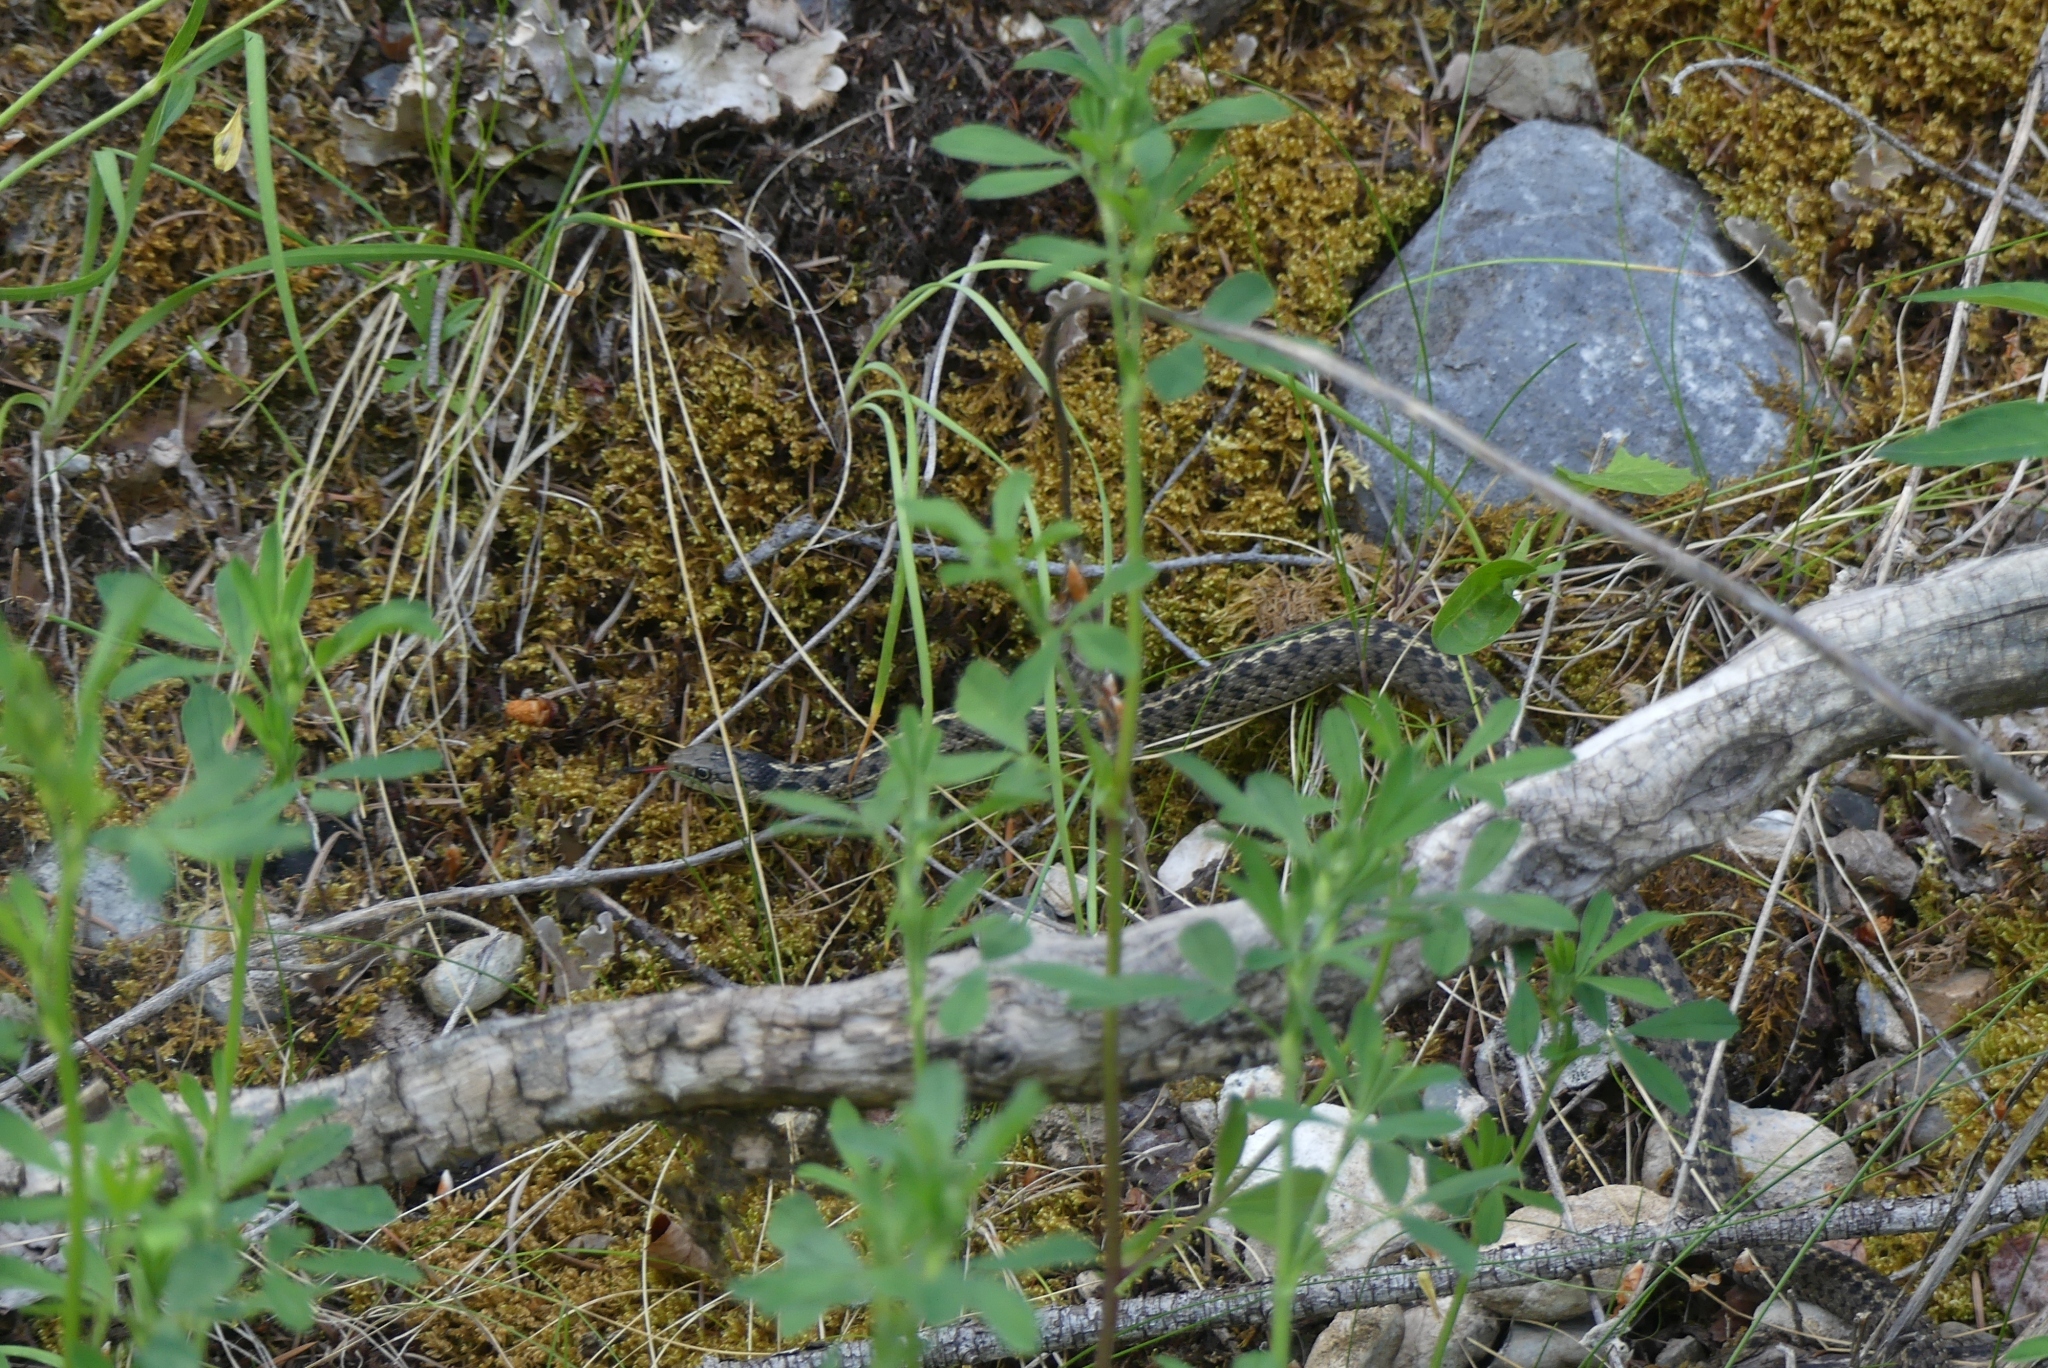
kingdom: Animalia
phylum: Chordata
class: Squamata
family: Colubridae
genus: Thamnophis
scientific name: Thamnophis elegans
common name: Western terrestrial garter snake
